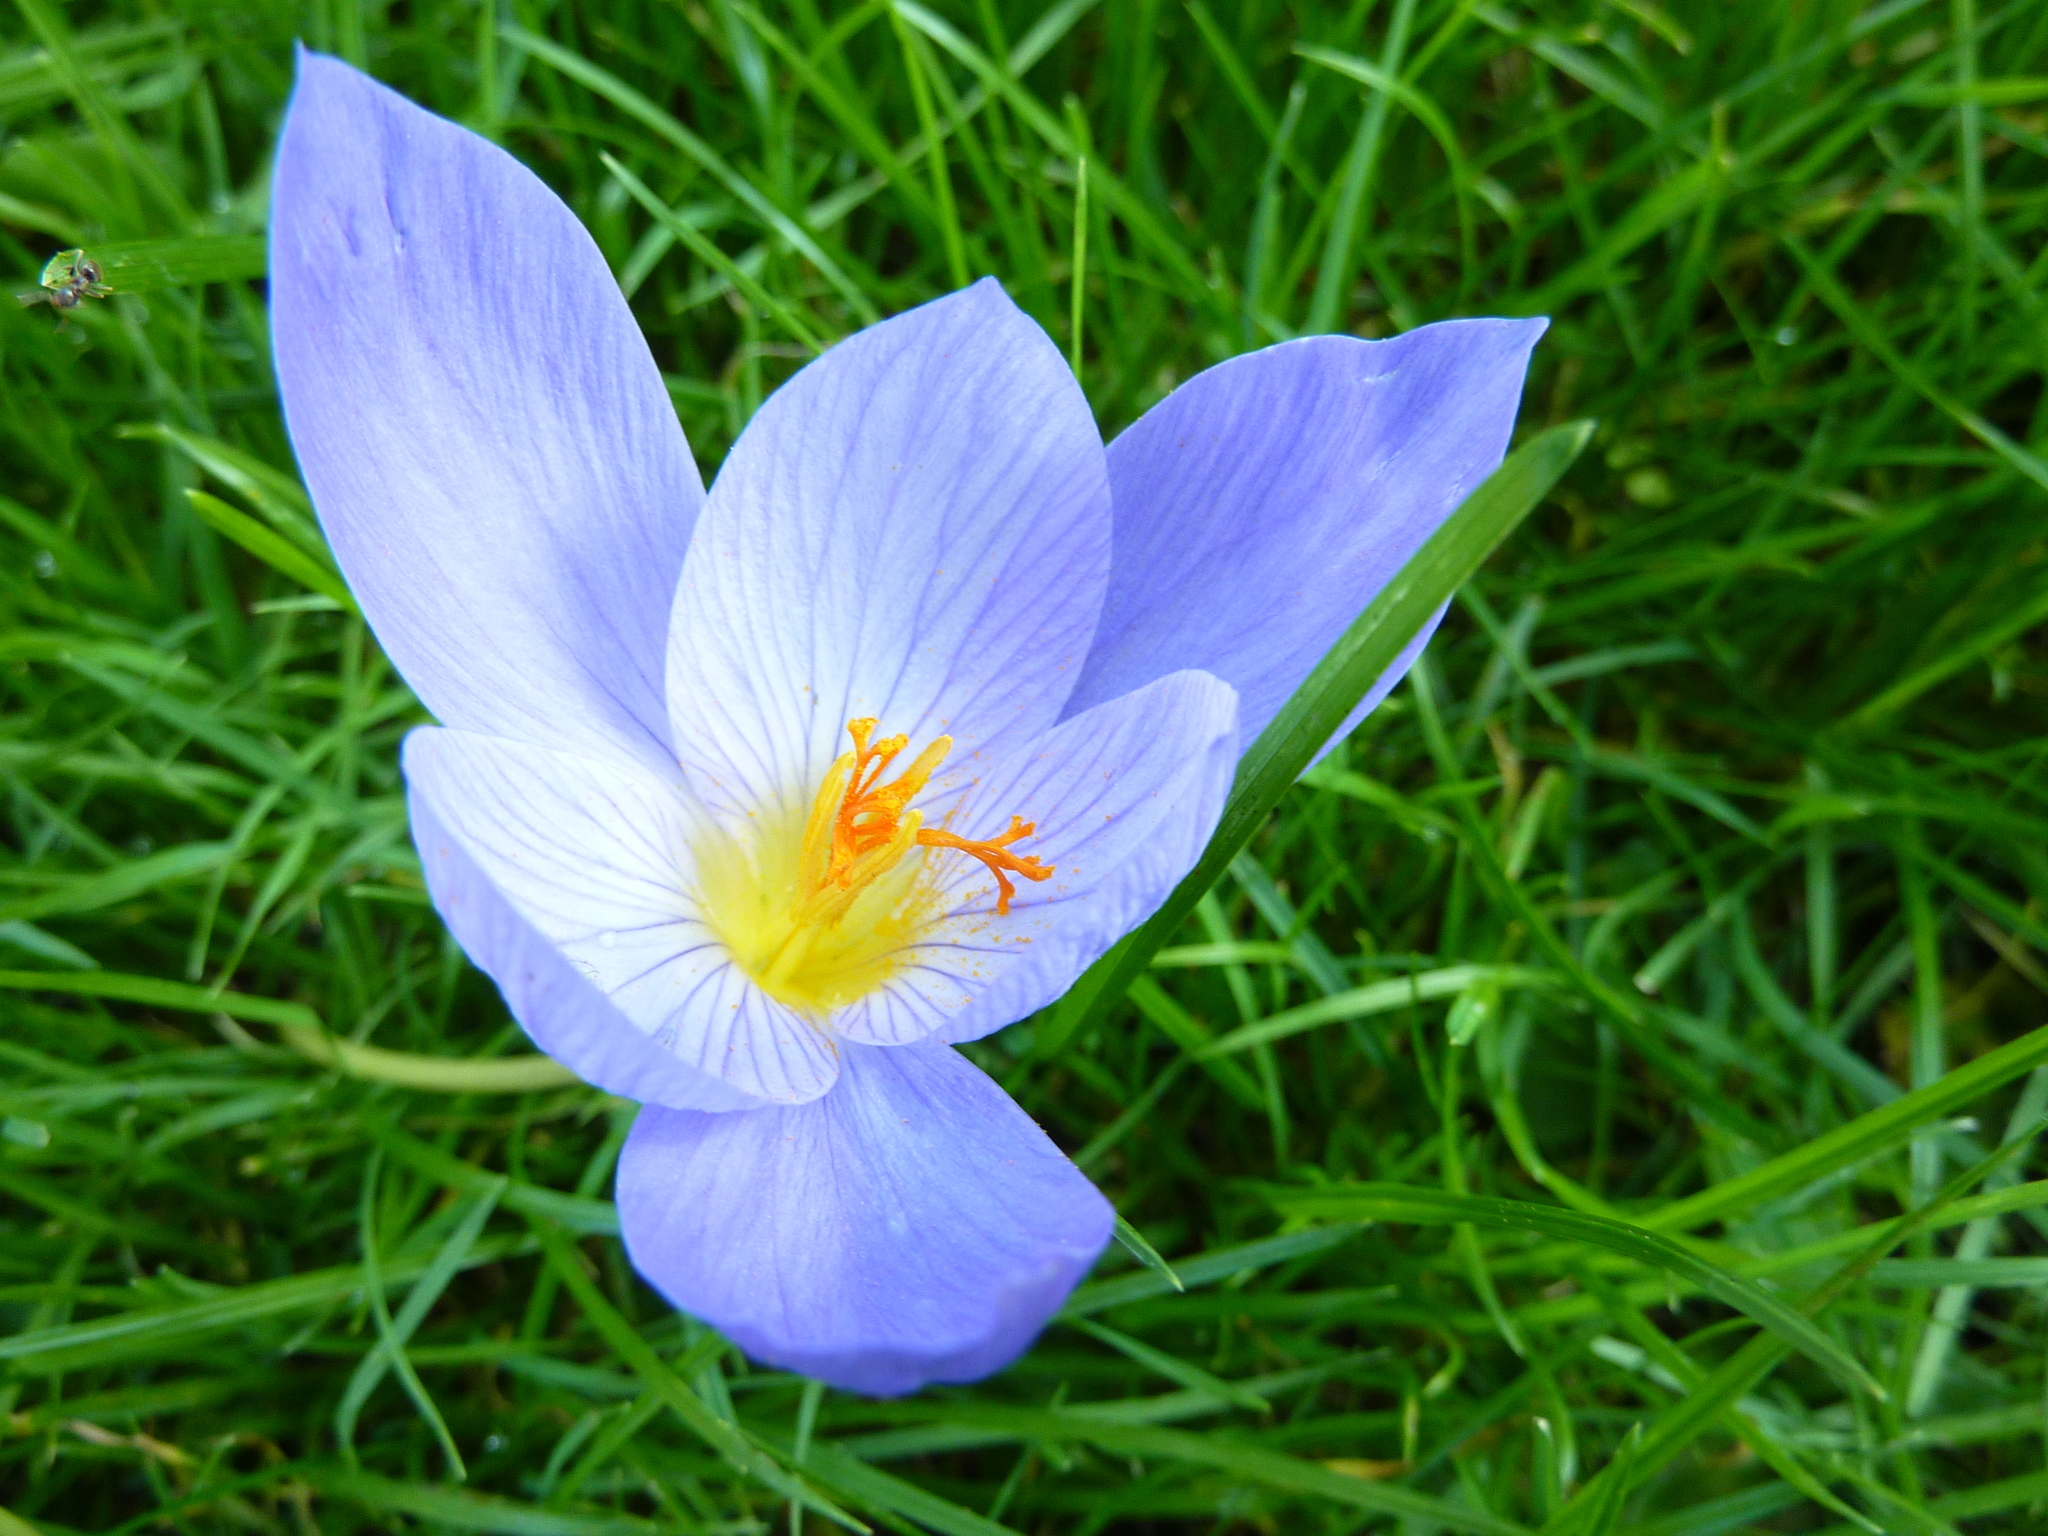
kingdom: Plantae
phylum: Tracheophyta
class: Liliopsida
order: Asparagales
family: Iridaceae
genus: Crocus
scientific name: Crocus speciosus
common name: Bieberstein's crocus
